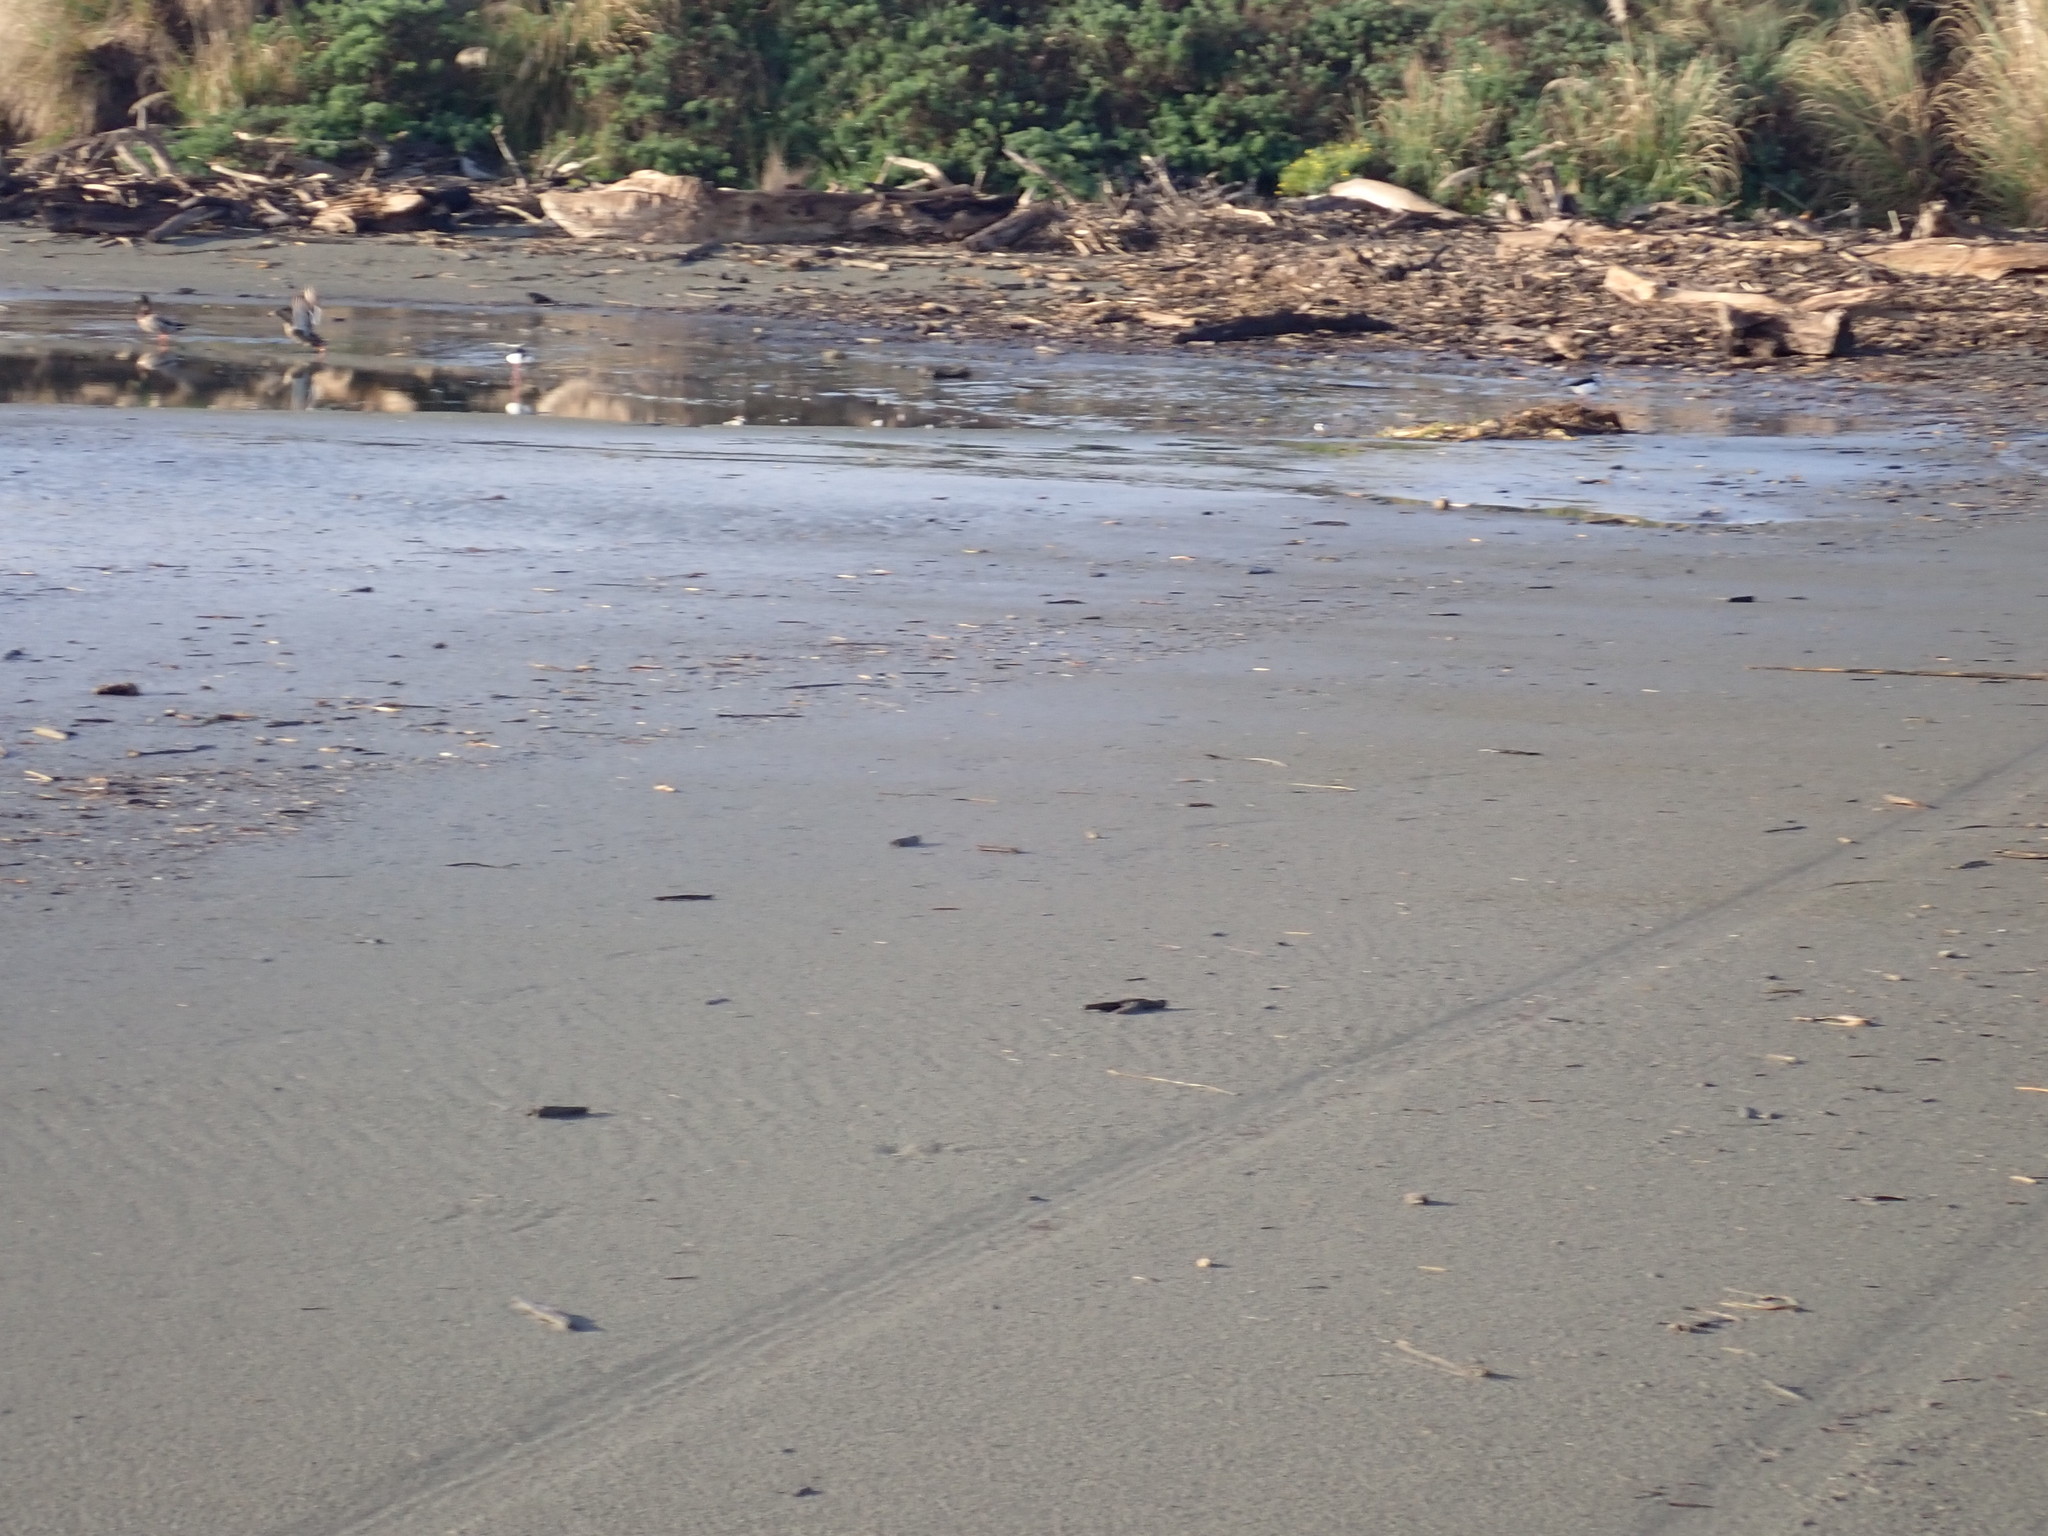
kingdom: Animalia
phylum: Chordata
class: Aves
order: Charadriiformes
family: Recurvirostridae
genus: Himantopus
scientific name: Himantopus leucocephalus
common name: White-headed stilt
